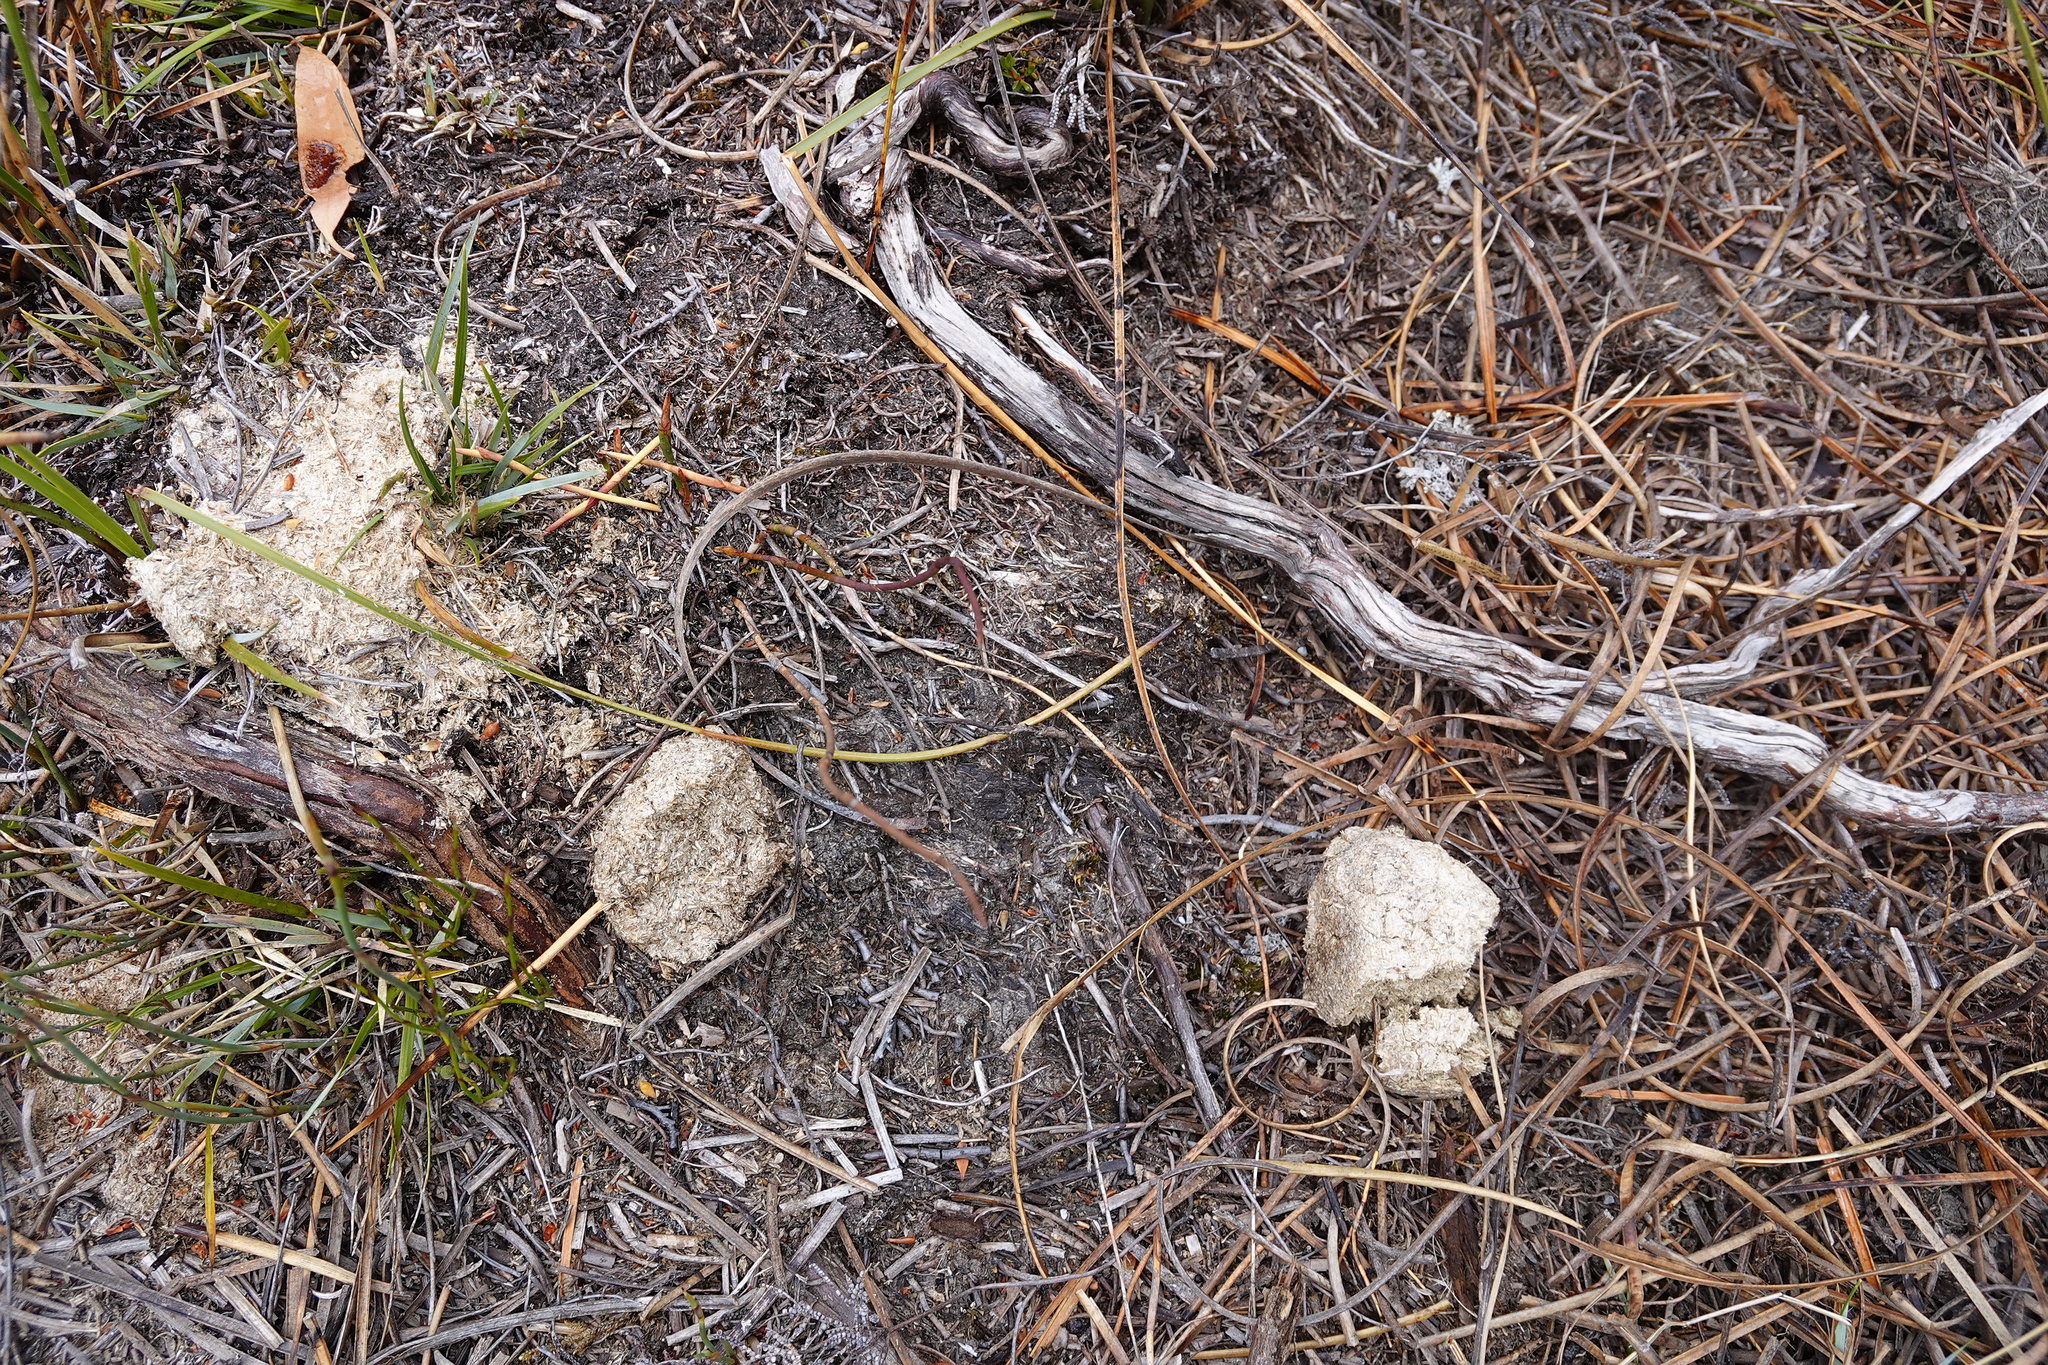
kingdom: Animalia
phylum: Chordata
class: Mammalia
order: Diprotodontia
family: Vombatidae
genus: Vombatus
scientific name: Vombatus ursinus
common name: Common wombat
